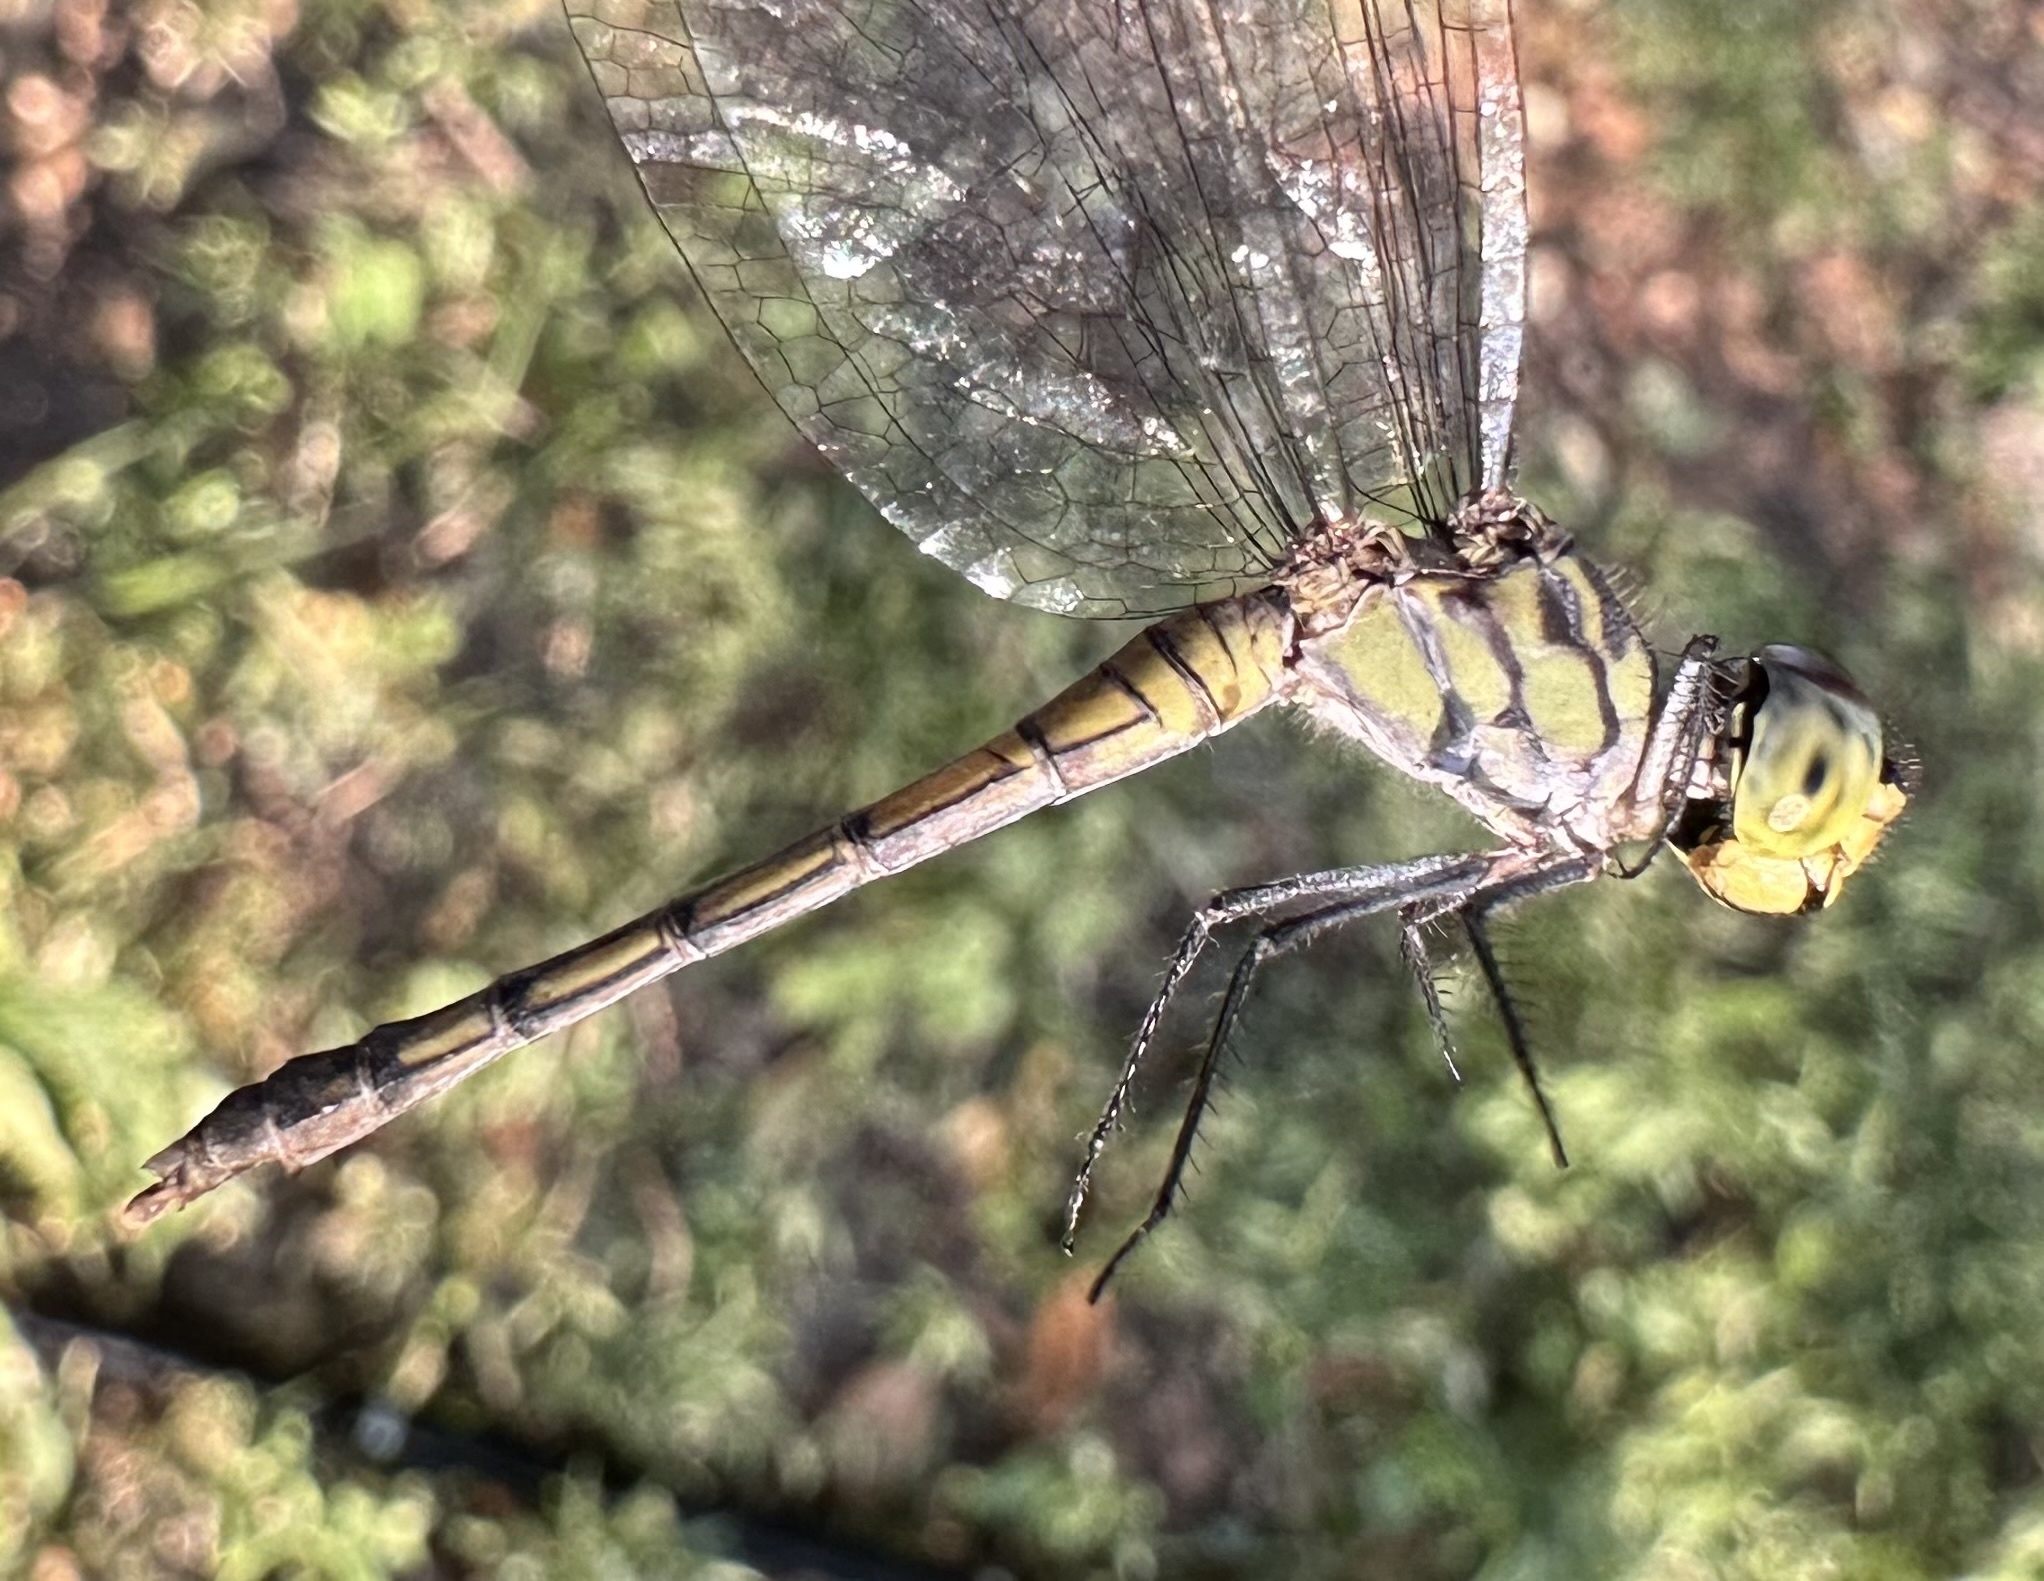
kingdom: Animalia
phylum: Arthropoda
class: Insecta
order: Odonata
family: Libellulidae
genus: Chalcostephia
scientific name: Chalcostephia flavifrons
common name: Inspector
